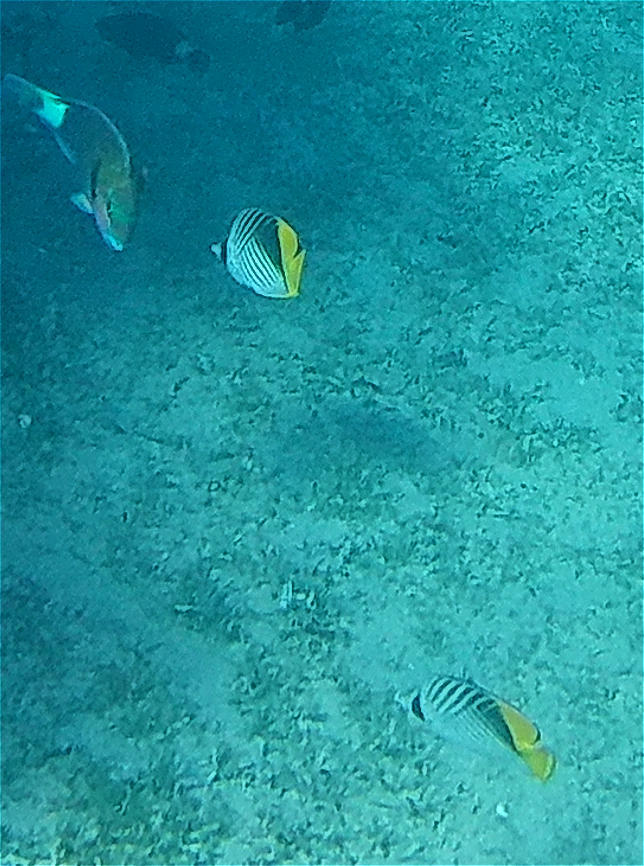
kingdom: Animalia
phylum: Chordata
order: Perciformes
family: Chaetodontidae
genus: Chaetodon
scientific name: Chaetodon auriga
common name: Threadfin butterflyfish
